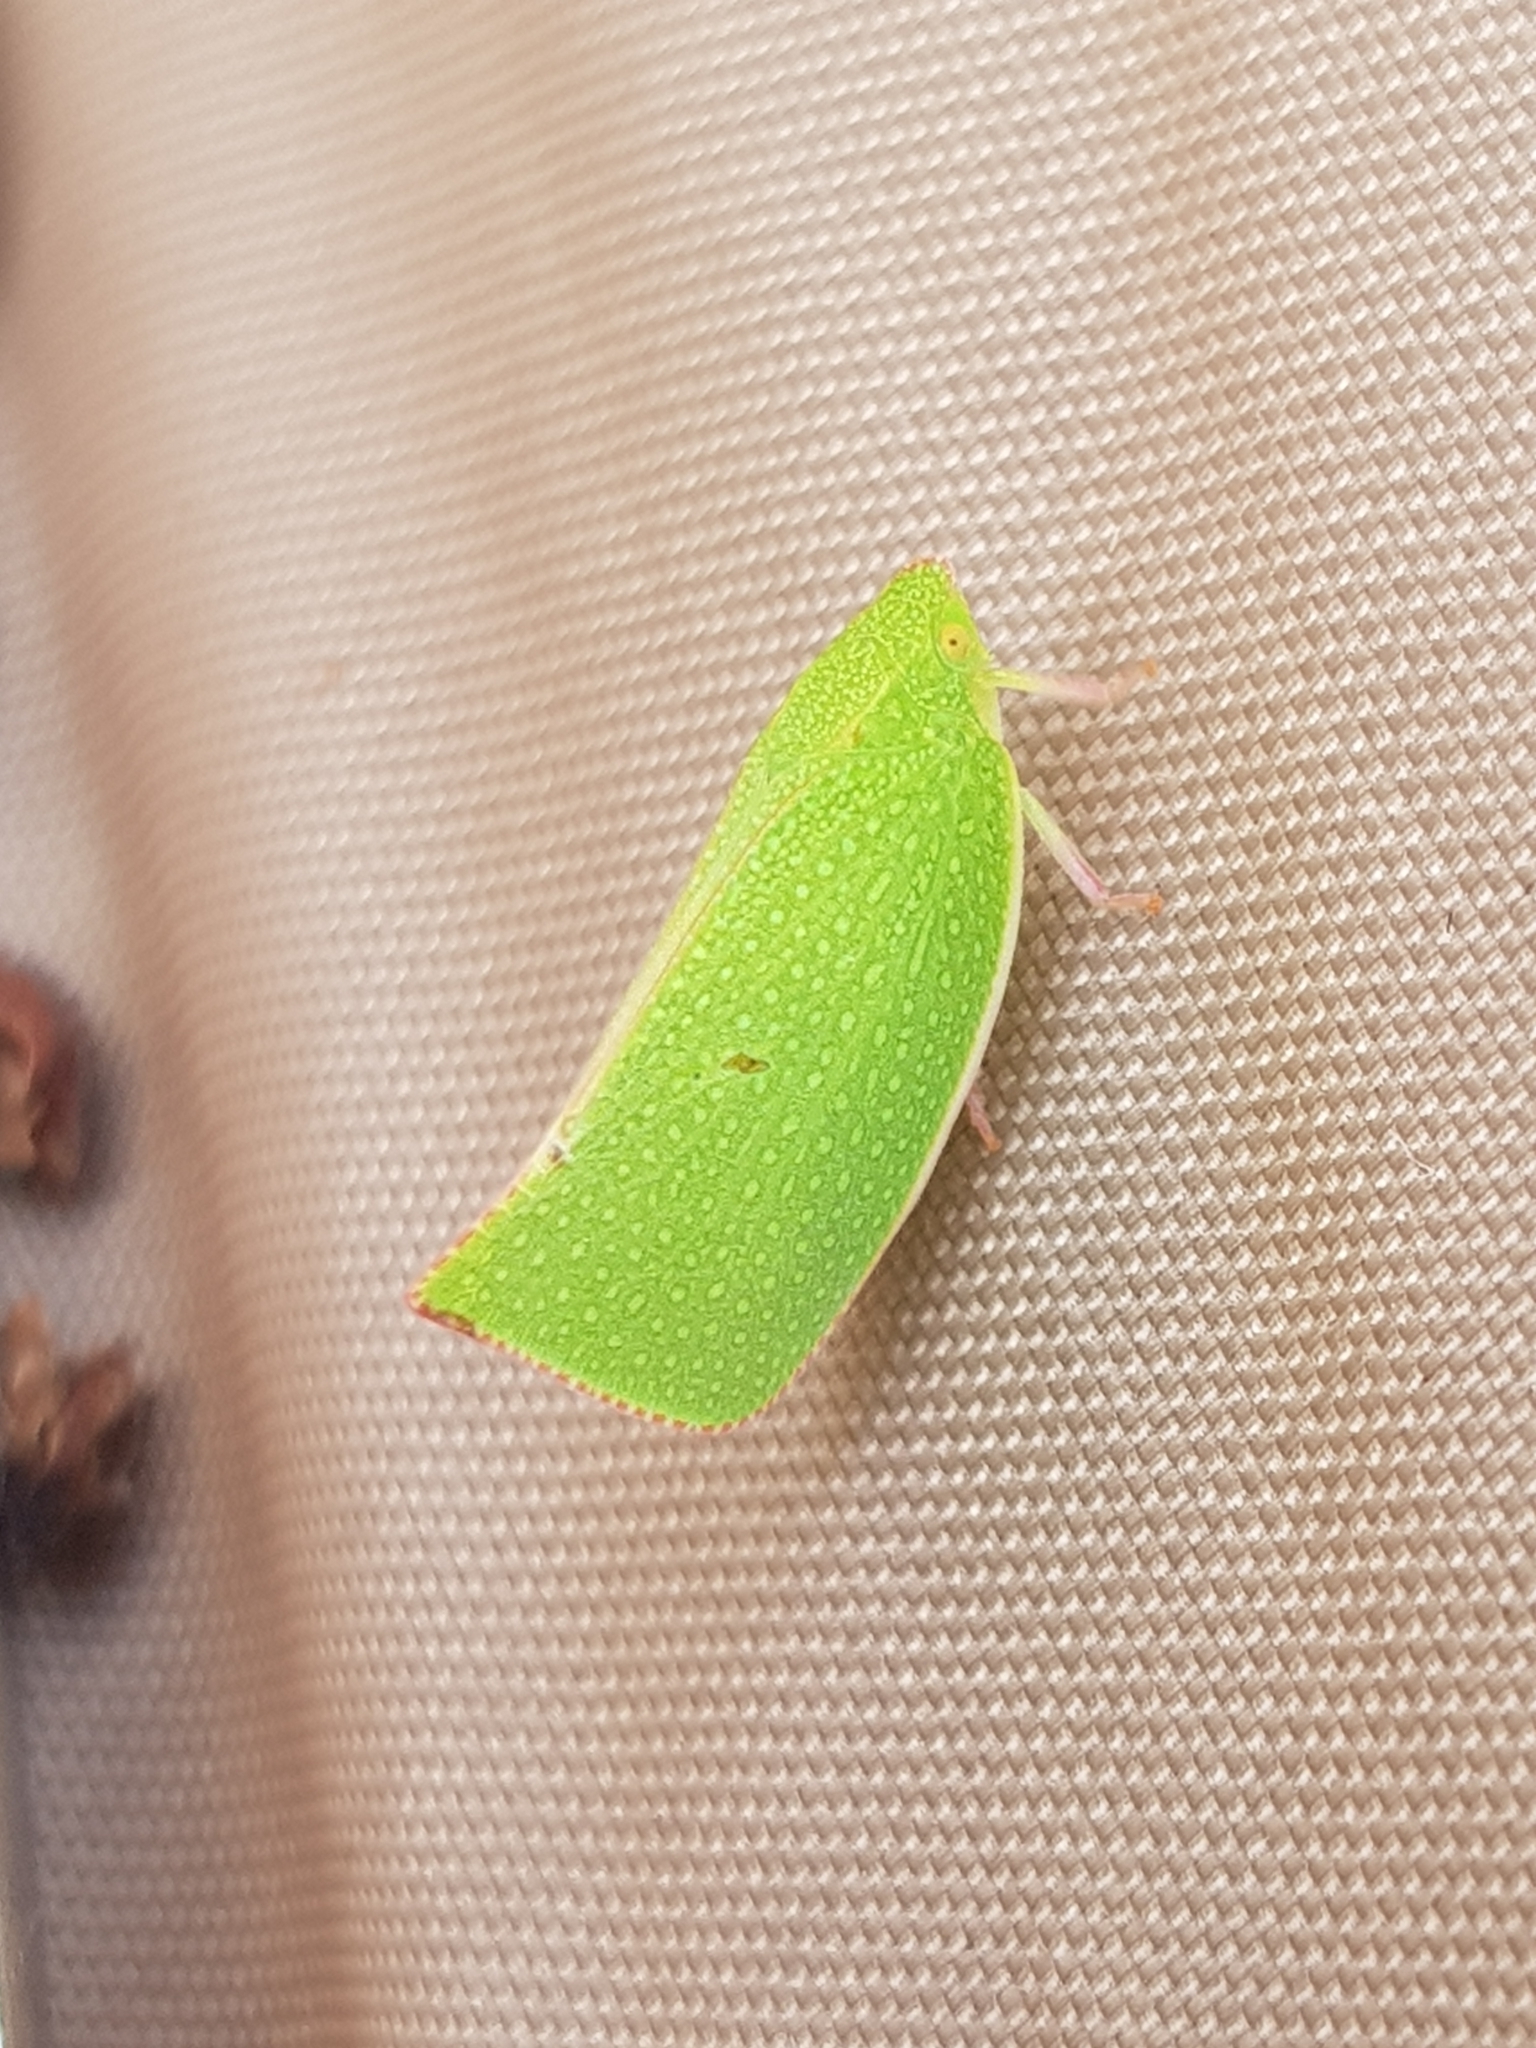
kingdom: Animalia
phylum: Arthropoda
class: Insecta
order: Hemiptera
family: Flatidae
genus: Siphanta
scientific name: Siphanta acuta
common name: Torpedo bug
